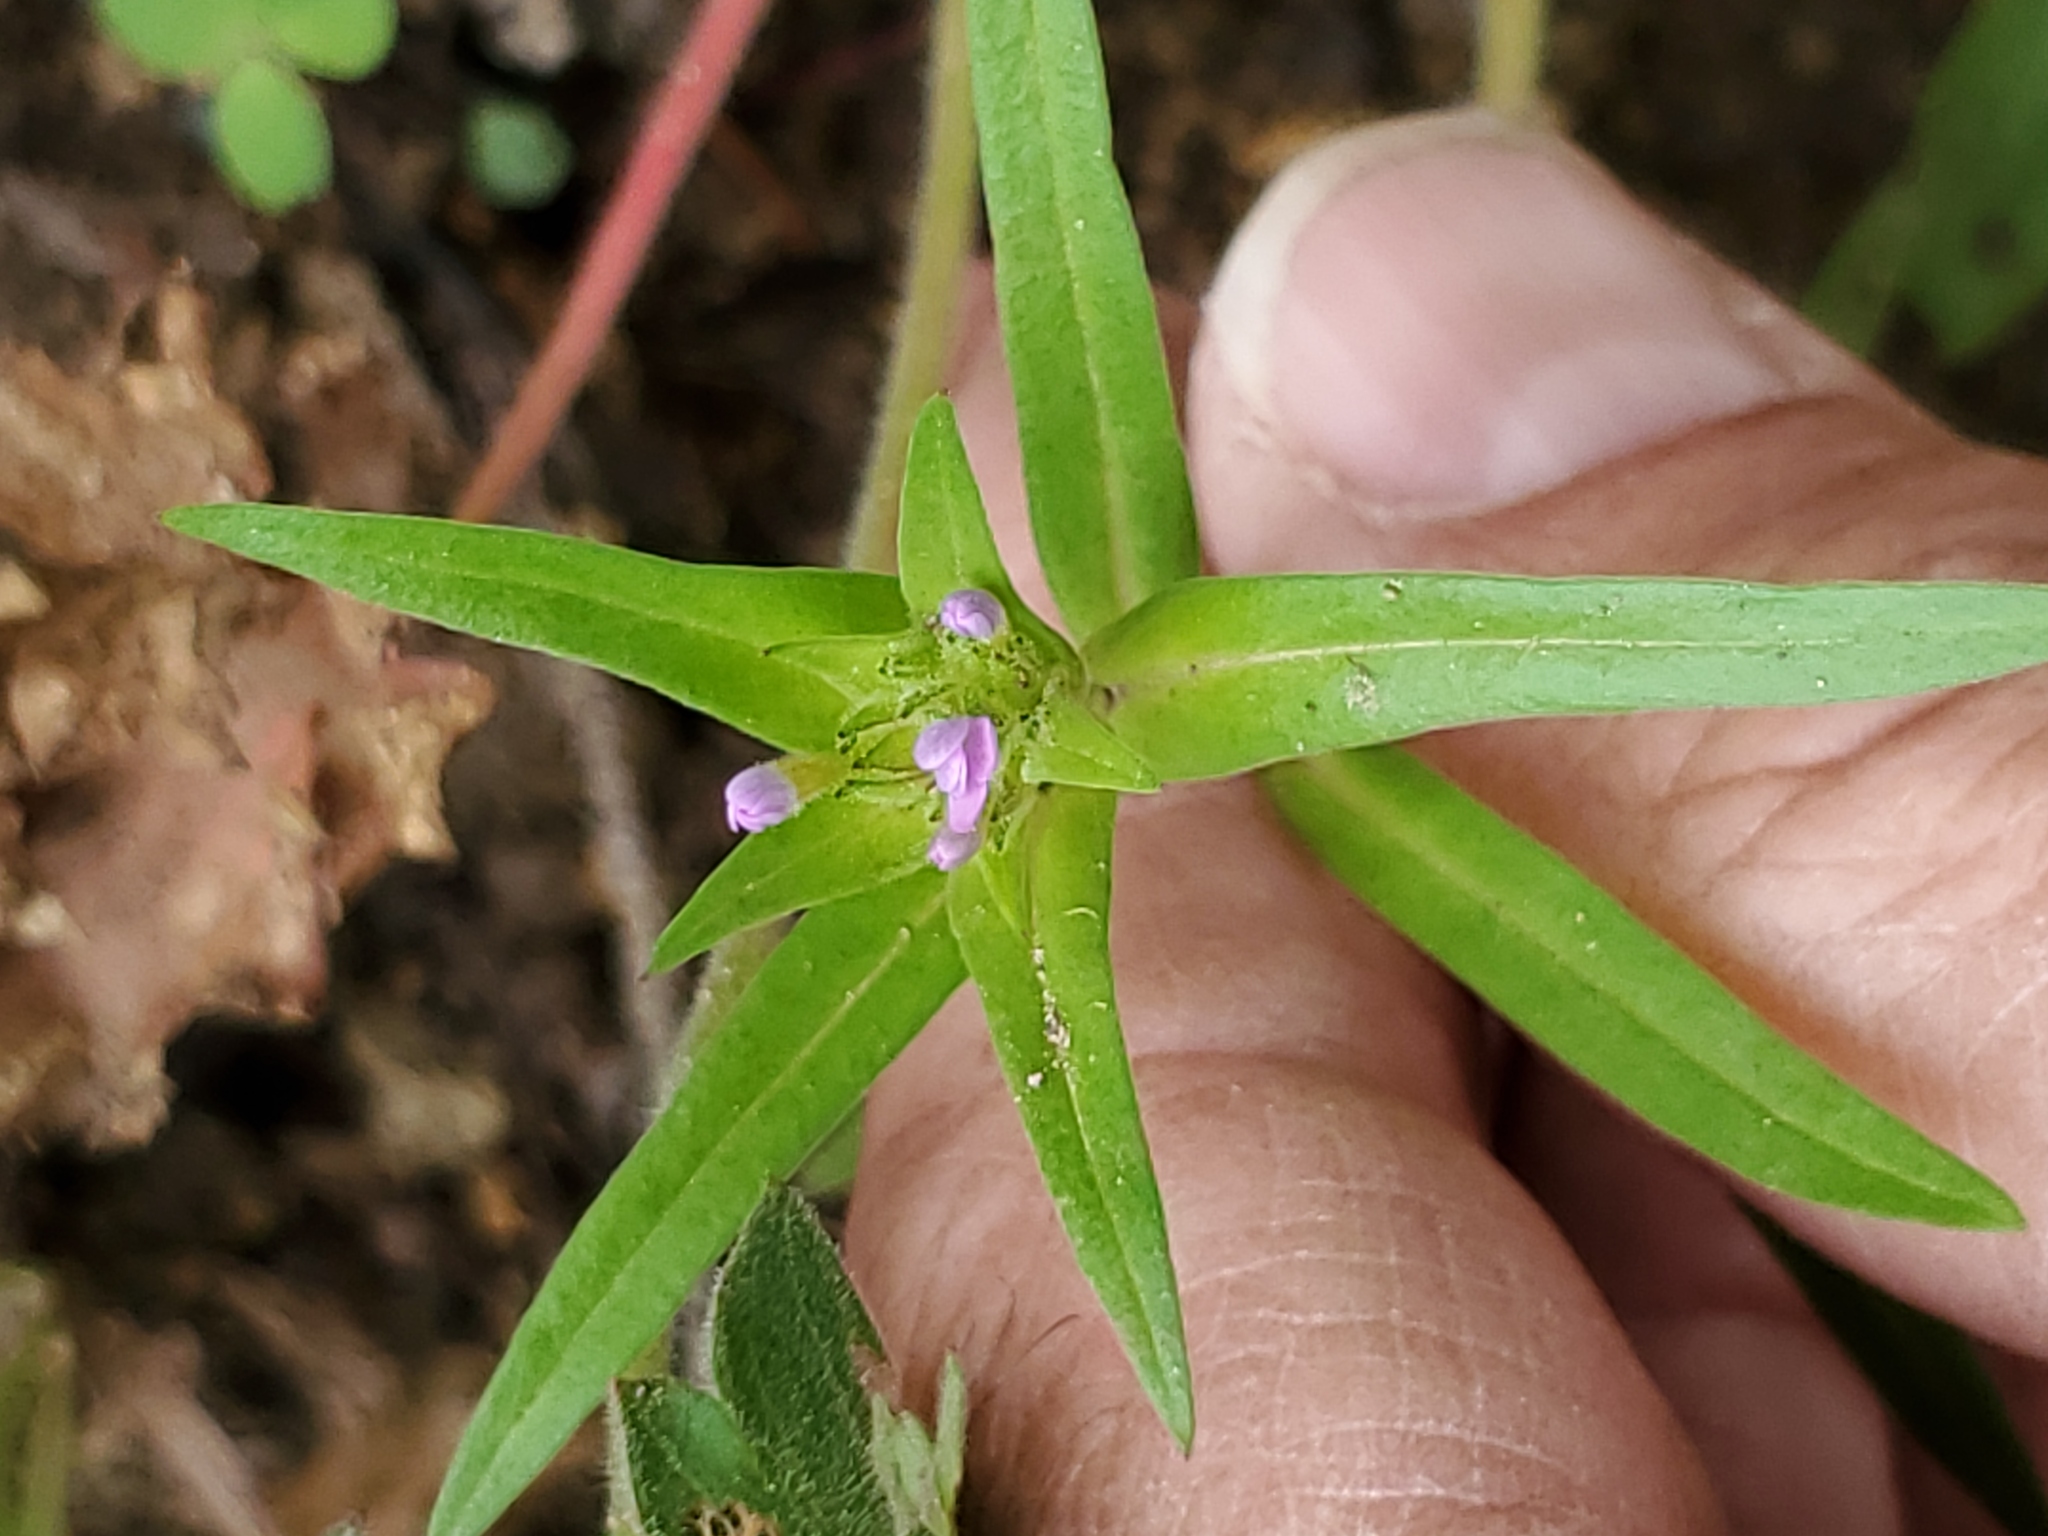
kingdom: Plantae
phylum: Tracheophyta
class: Magnoliopsida
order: Ericales
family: Polemoniaceae
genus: Collomia
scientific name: Collomia linearis
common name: Tiny trumpet
